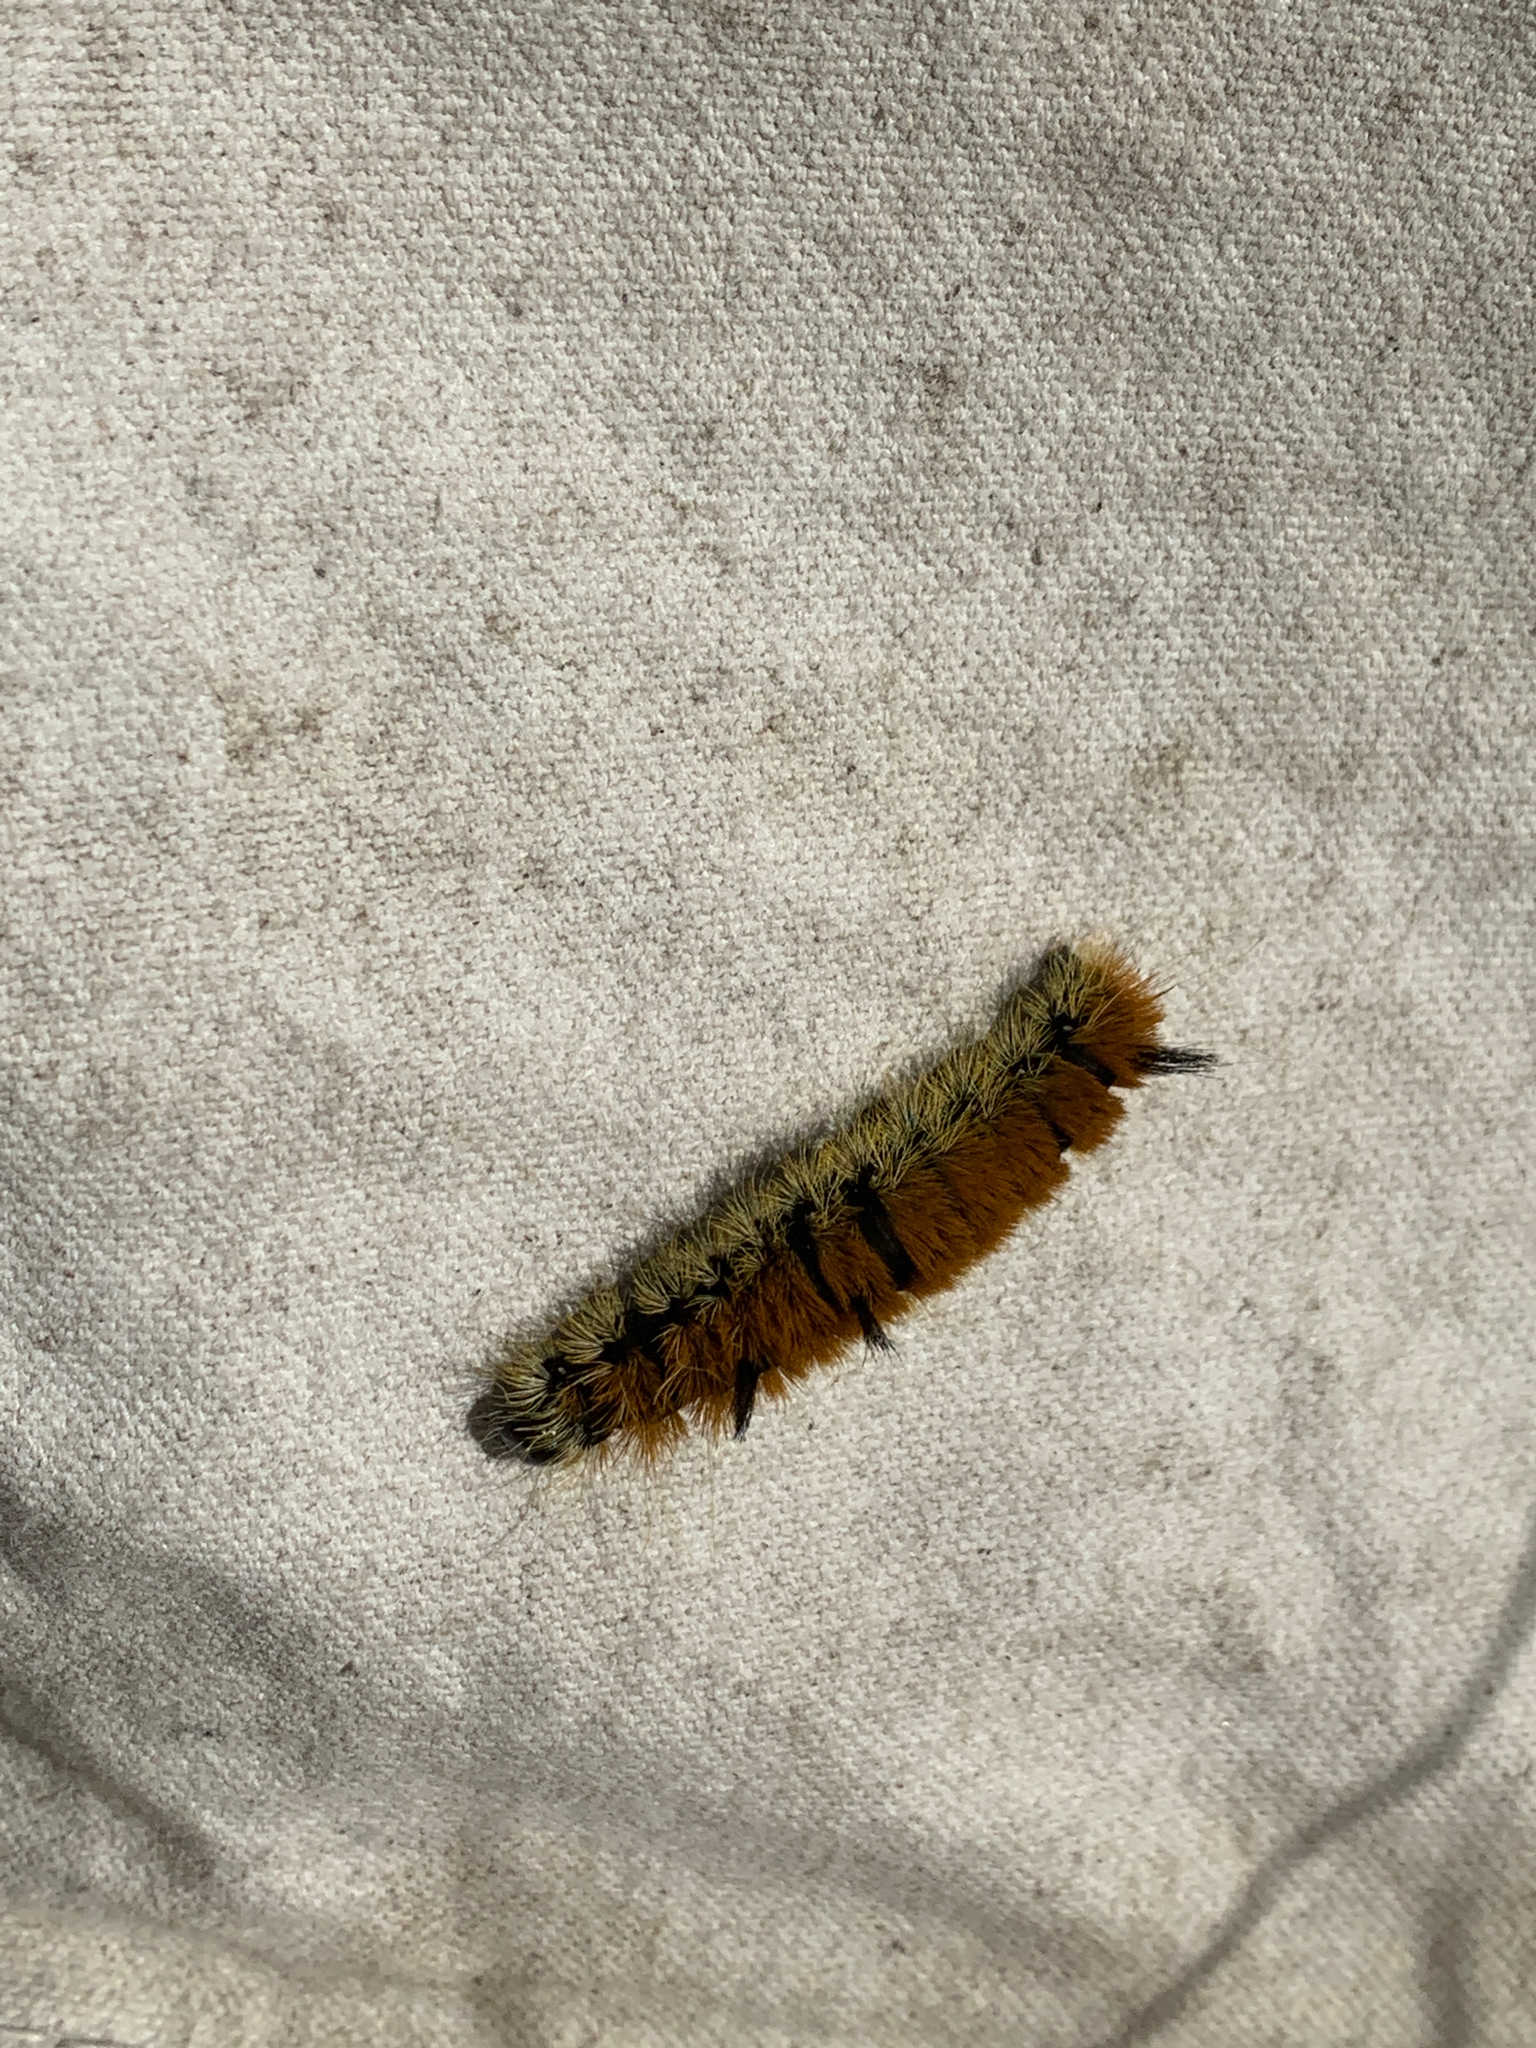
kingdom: Animalia
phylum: Arthropoda
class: Insecta
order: Lepidoptera
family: Noctuidae
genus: Acronicta
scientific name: Acronicta insita
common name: Large gray dagger
